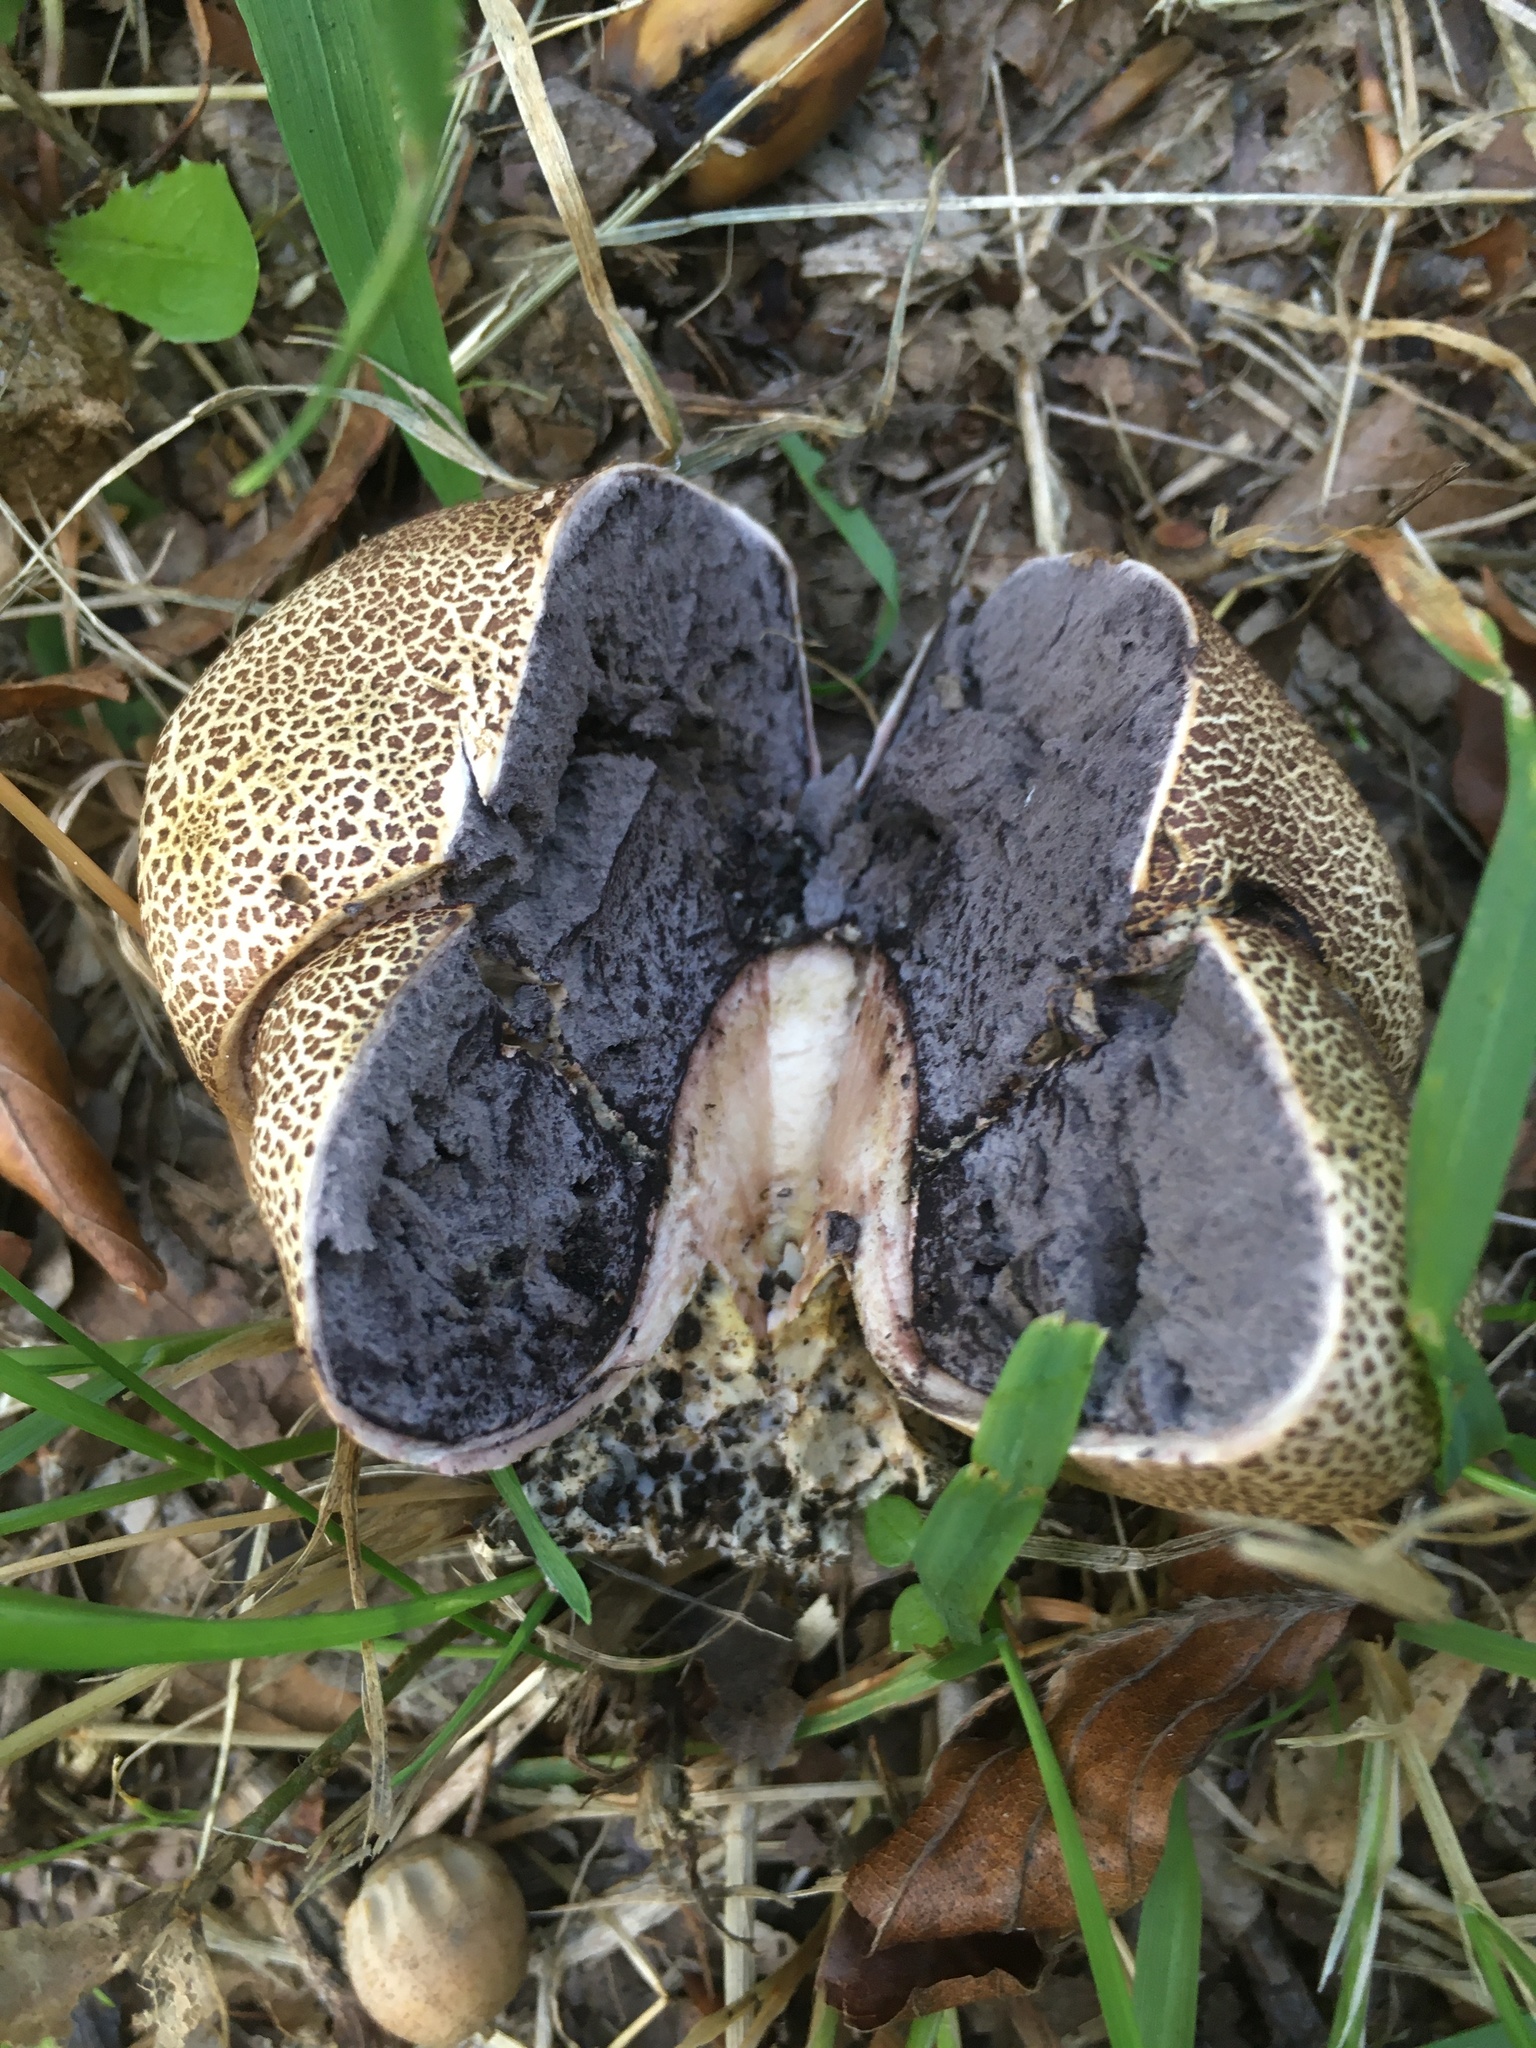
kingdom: Fungi
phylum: Basidiomycota
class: Agaricomycetes
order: Boletales
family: Sclerodermataceae
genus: Scleroderma
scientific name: Scleroderma citrinum
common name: Common earthball
